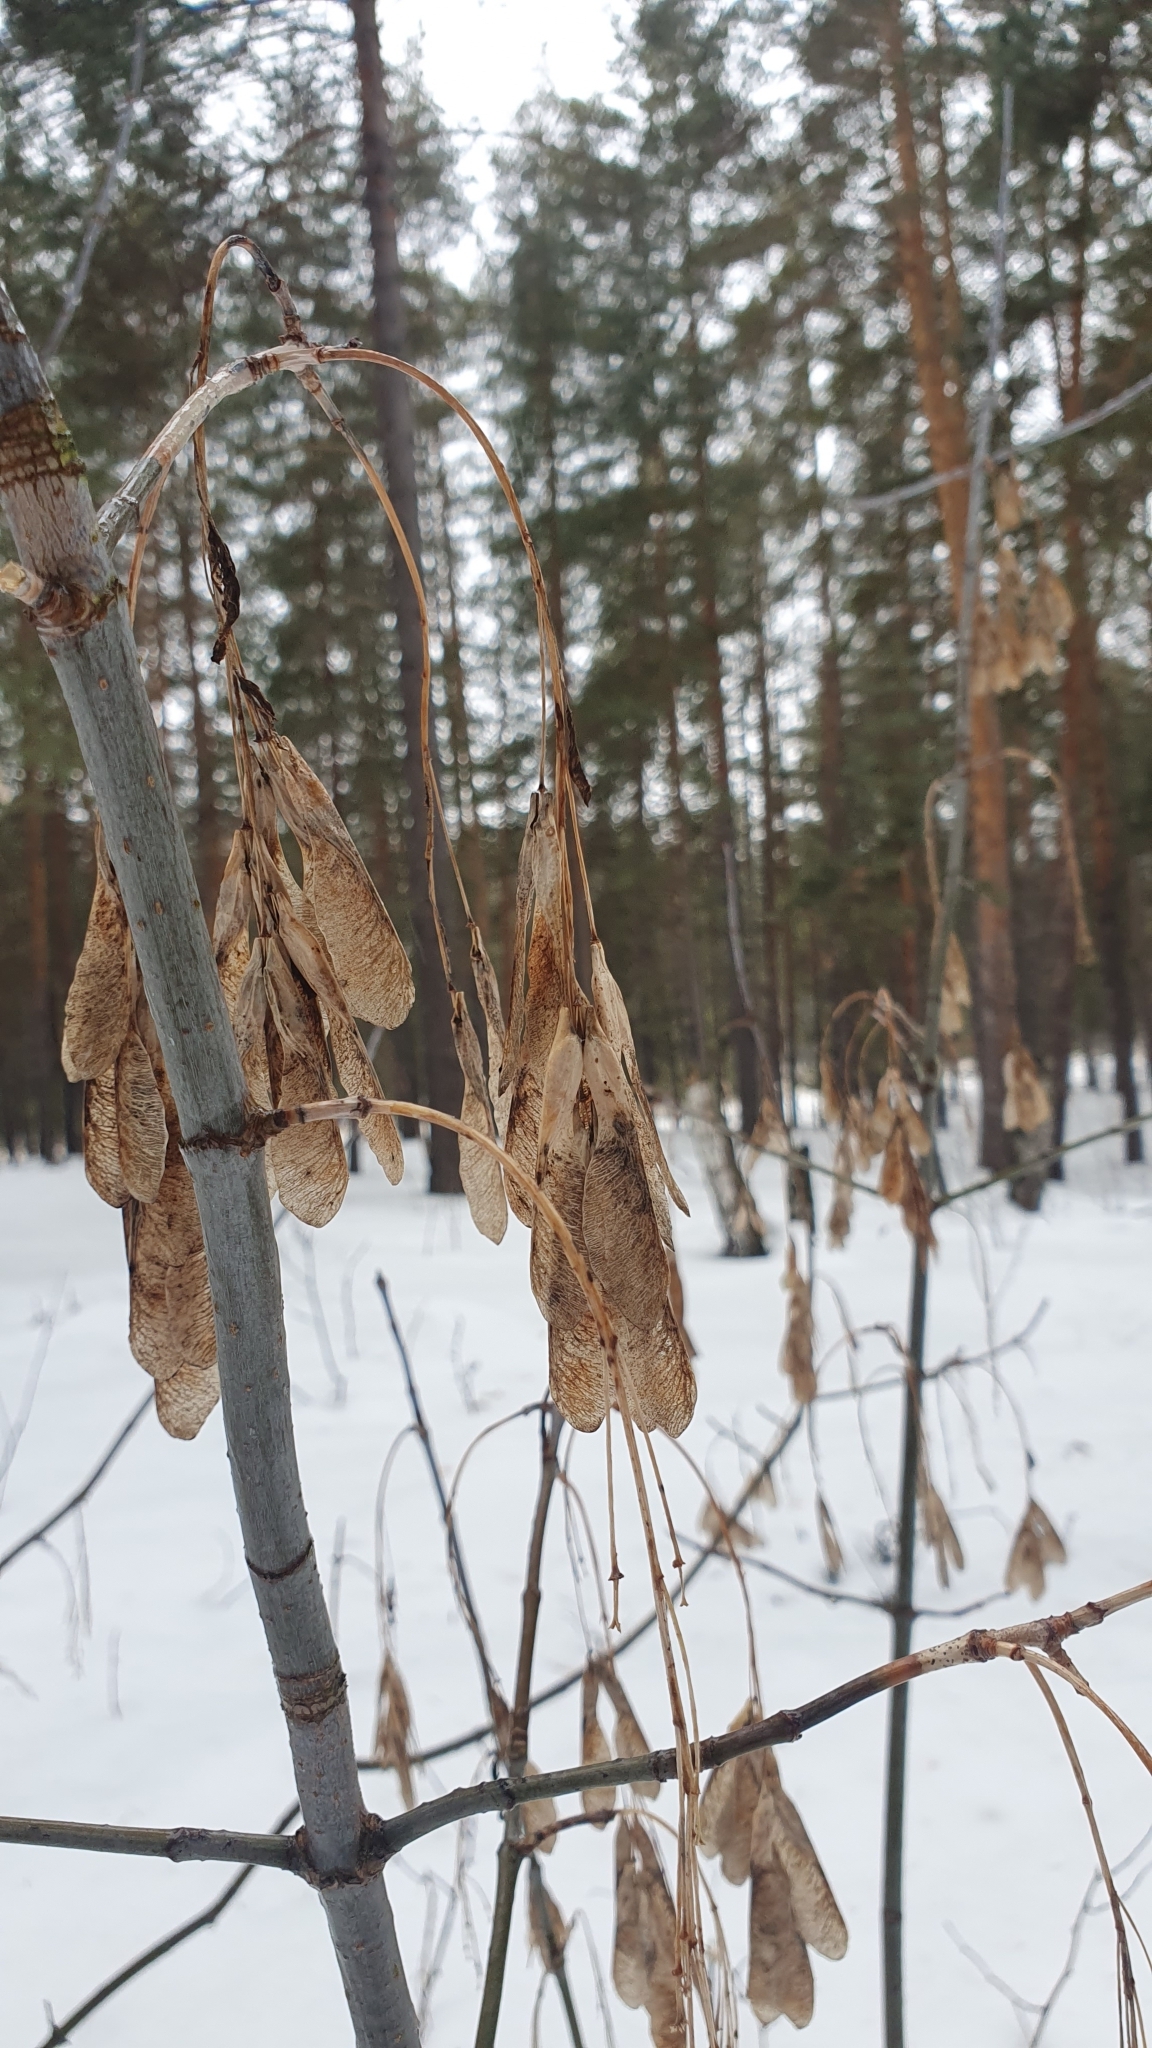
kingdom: Plantae
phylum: Tracheophyta
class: Magnoliopsida
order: Sapindales
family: Sapindaceae
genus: Acer
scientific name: Acer negundo
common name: Ashleaf maple
